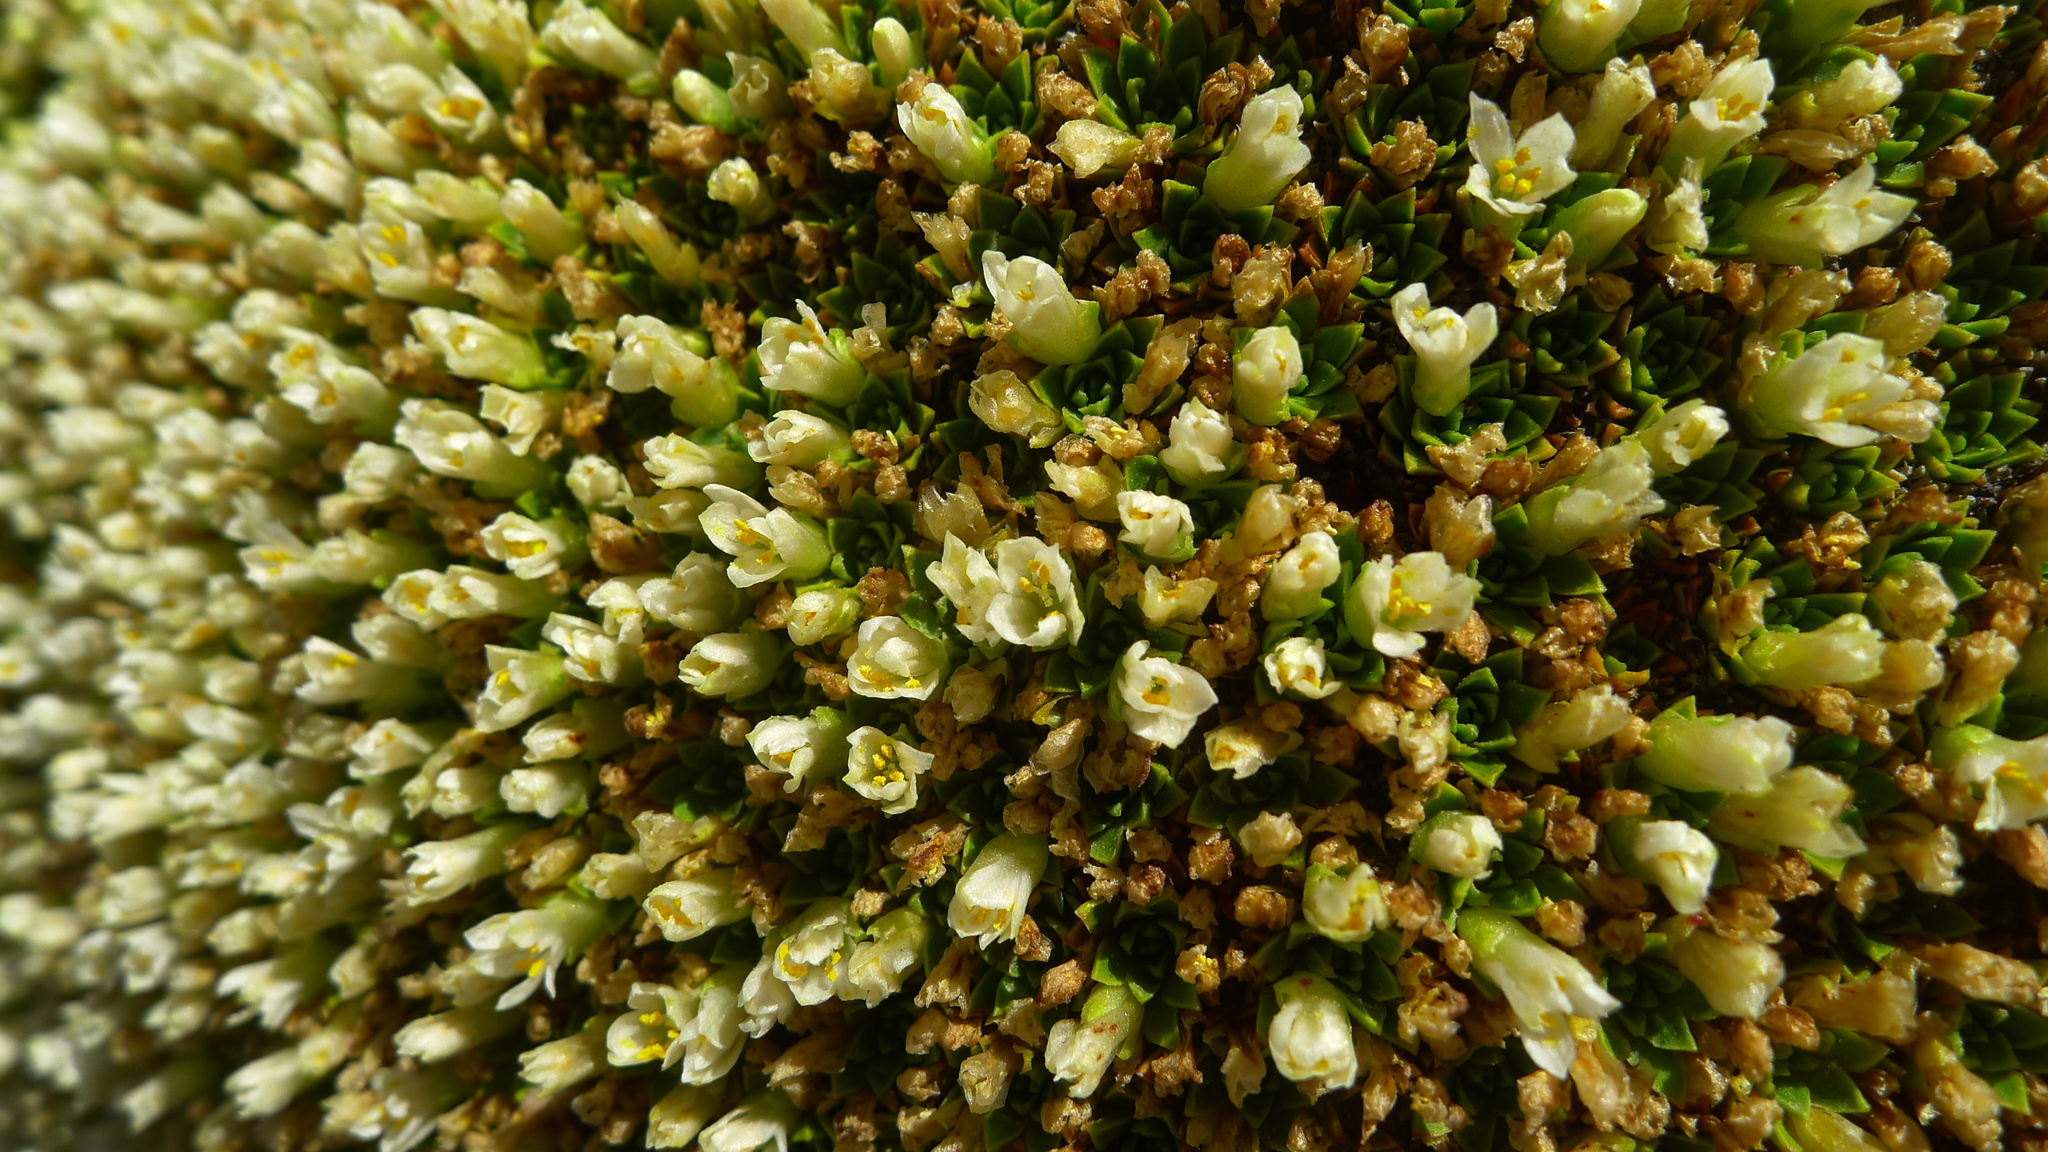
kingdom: Plantae
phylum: Tracheophyta
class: Magnoliopsida
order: Caryophyllales
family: Montiaceae
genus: Hectorella
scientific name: Hectorella caespitosa
